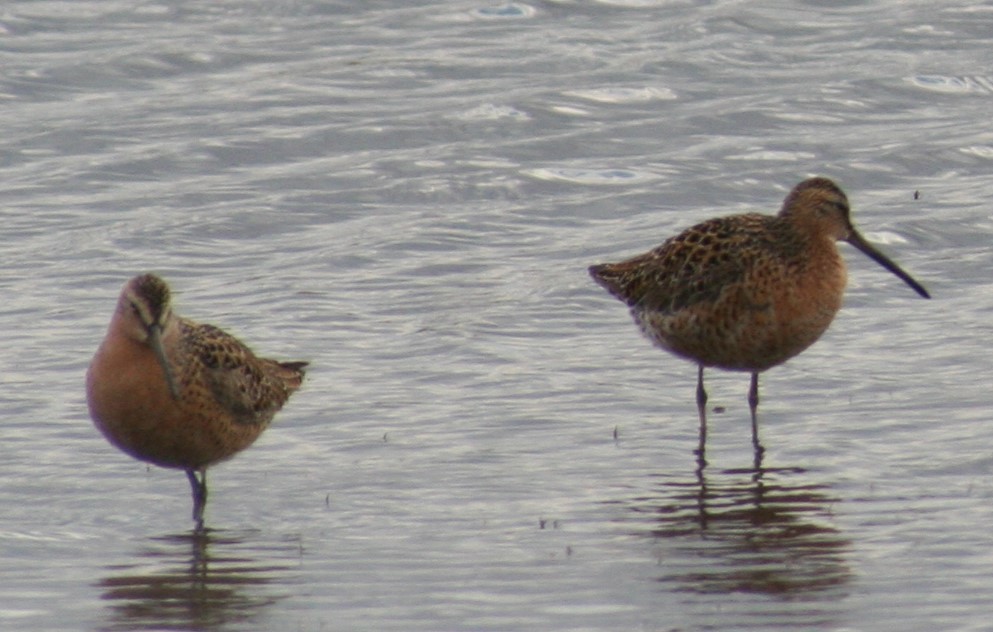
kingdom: Animalia
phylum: Chordata
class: Aves
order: Charadriiformes
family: Scolopacidae
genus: Limnodromus
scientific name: Limnodromus griseus
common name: Short-billed dowitcher
